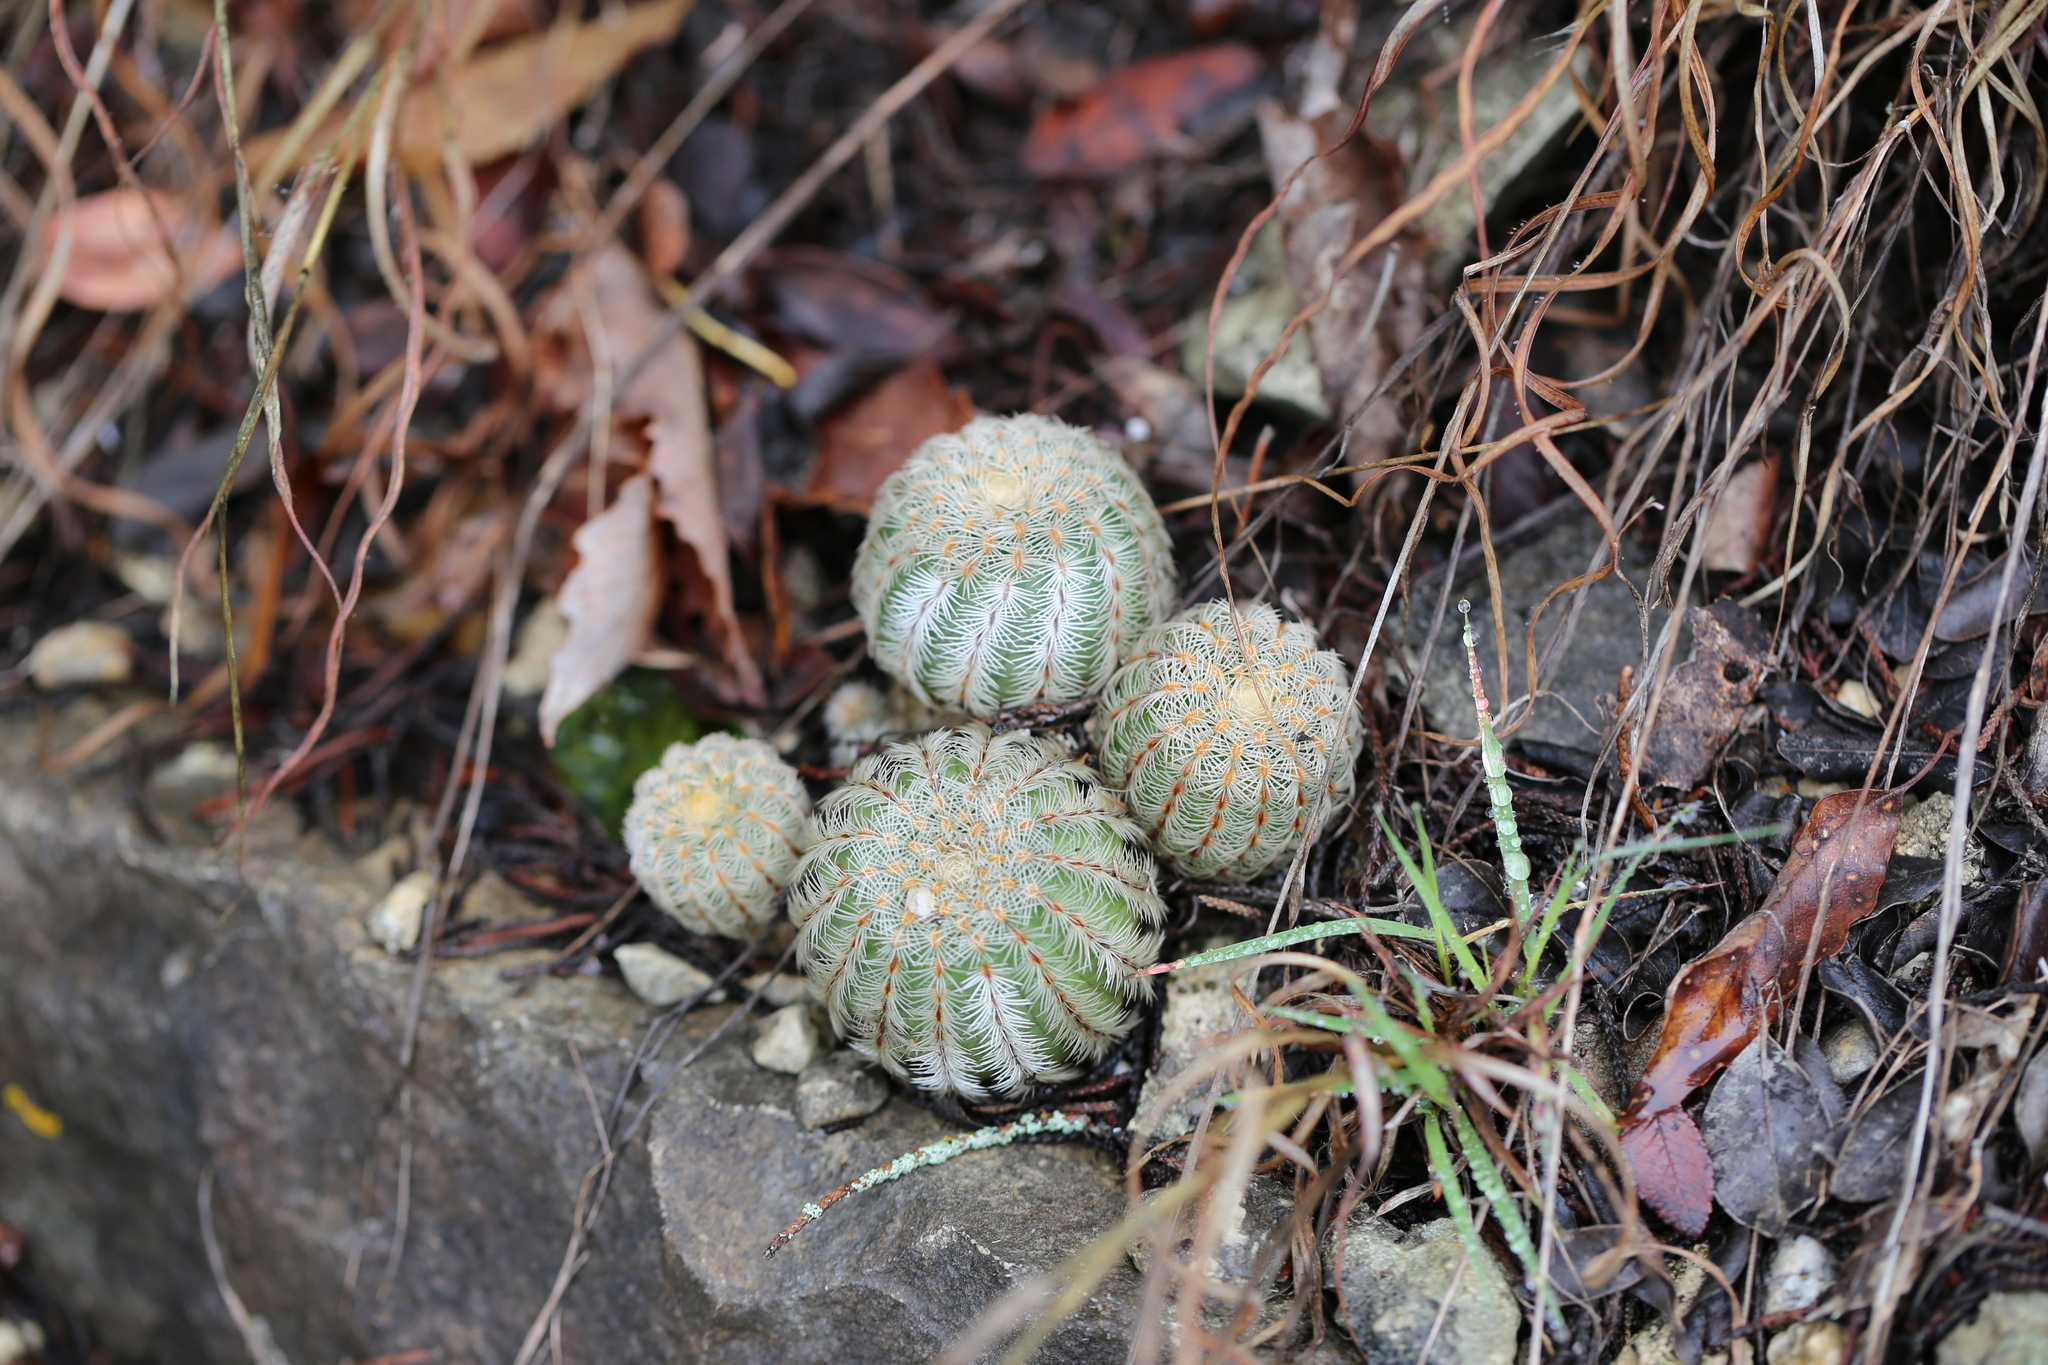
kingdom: Plantae
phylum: Tracheophyta
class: Magnoliopsida
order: Caryophyllales
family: Cactaceae
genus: Echinocereus
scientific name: Echinocereus reichenbachii
